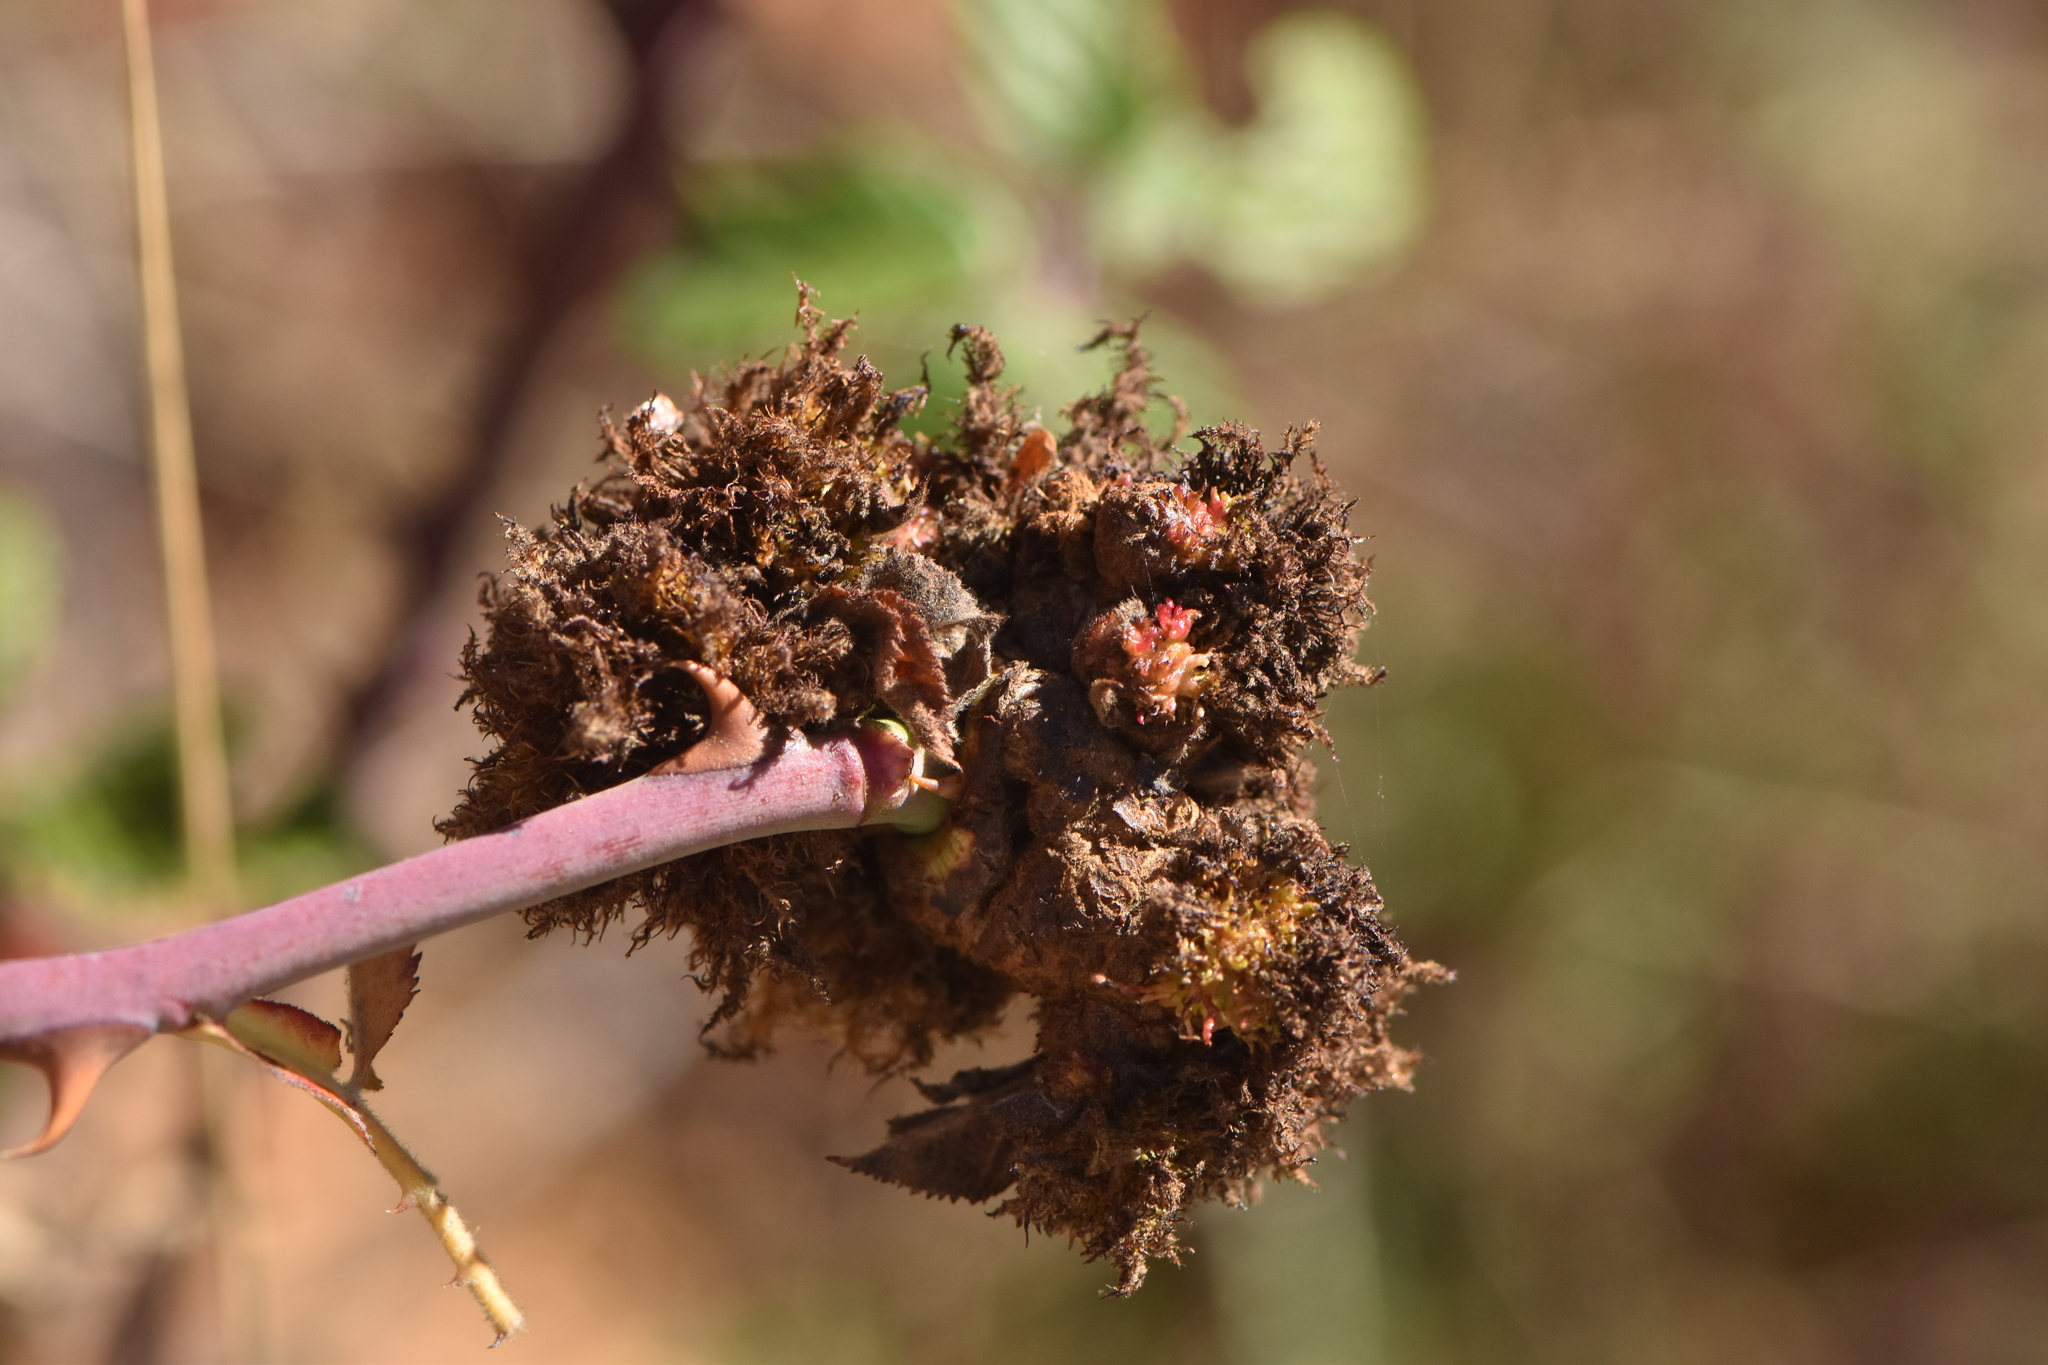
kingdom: Animalia
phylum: Arthropoda
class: Insecta
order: Hymenoptera
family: Cynipidae
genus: Diplolepis
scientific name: Diplolepis rosae
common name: Bedeguar gall
